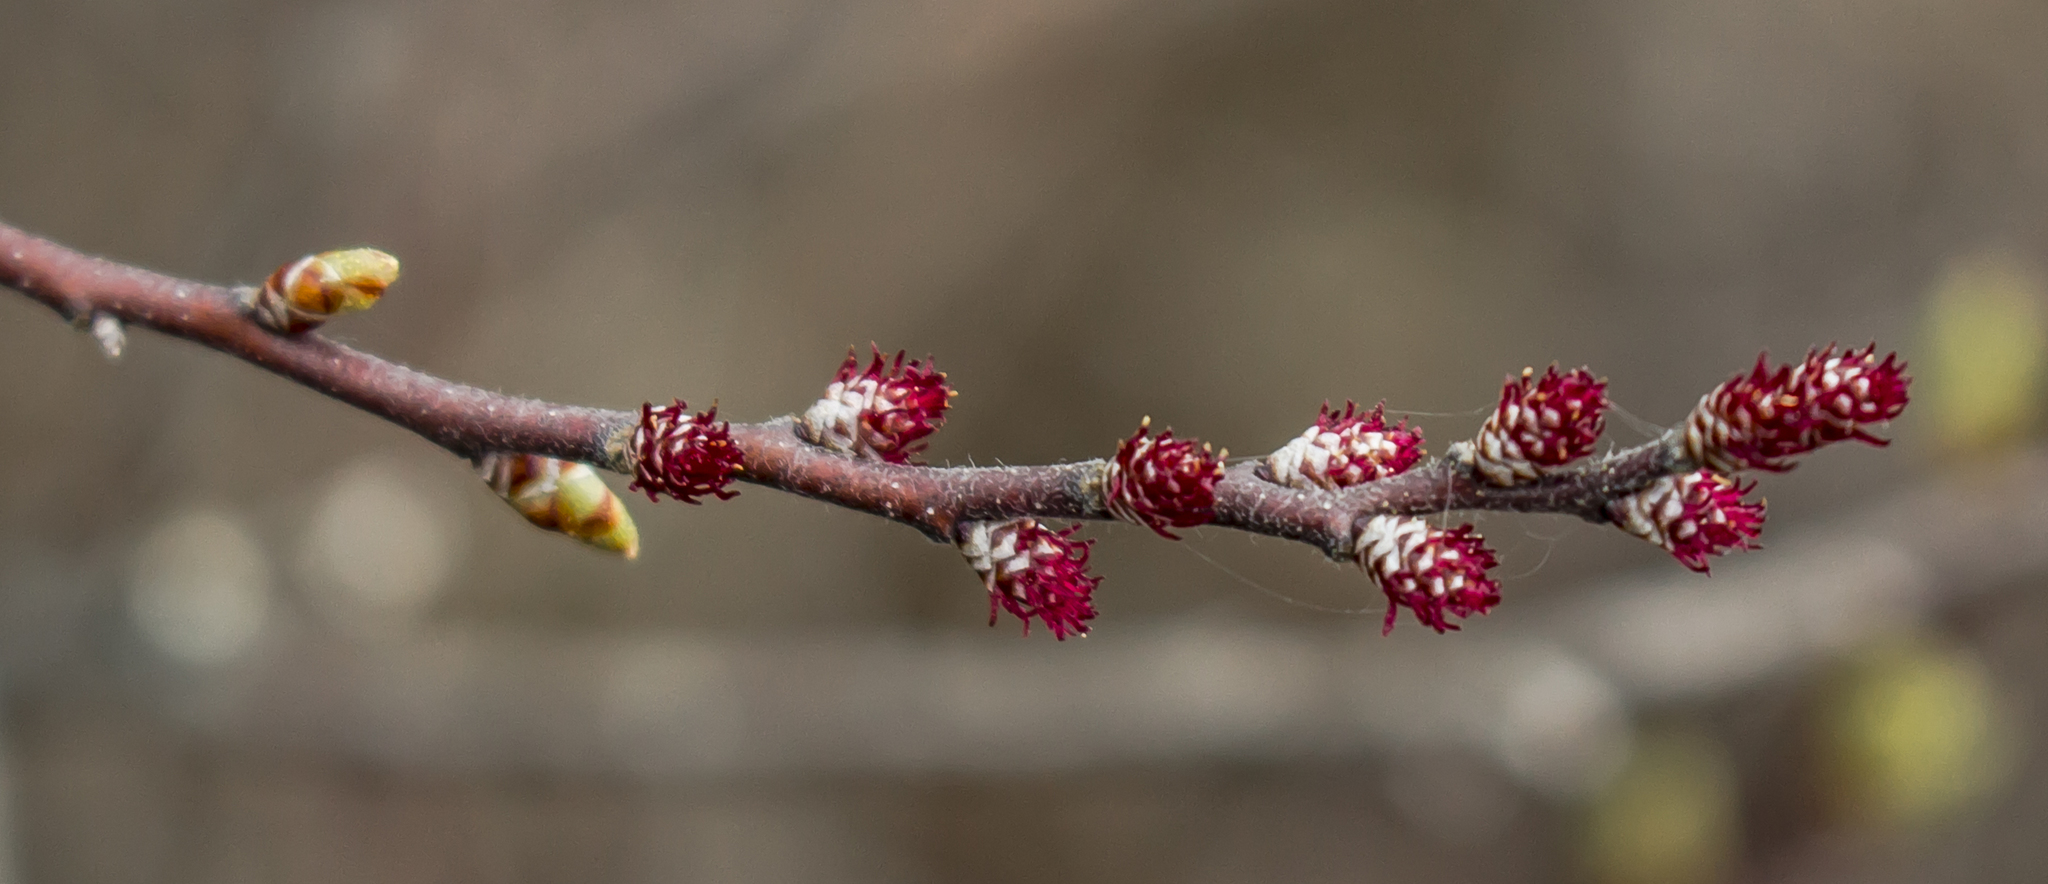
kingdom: Plantae
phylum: Tracheophyta
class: Magnoliopsida
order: Fagales
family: Betulaceae
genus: Betula
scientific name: Betula pumila
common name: Bog birch
